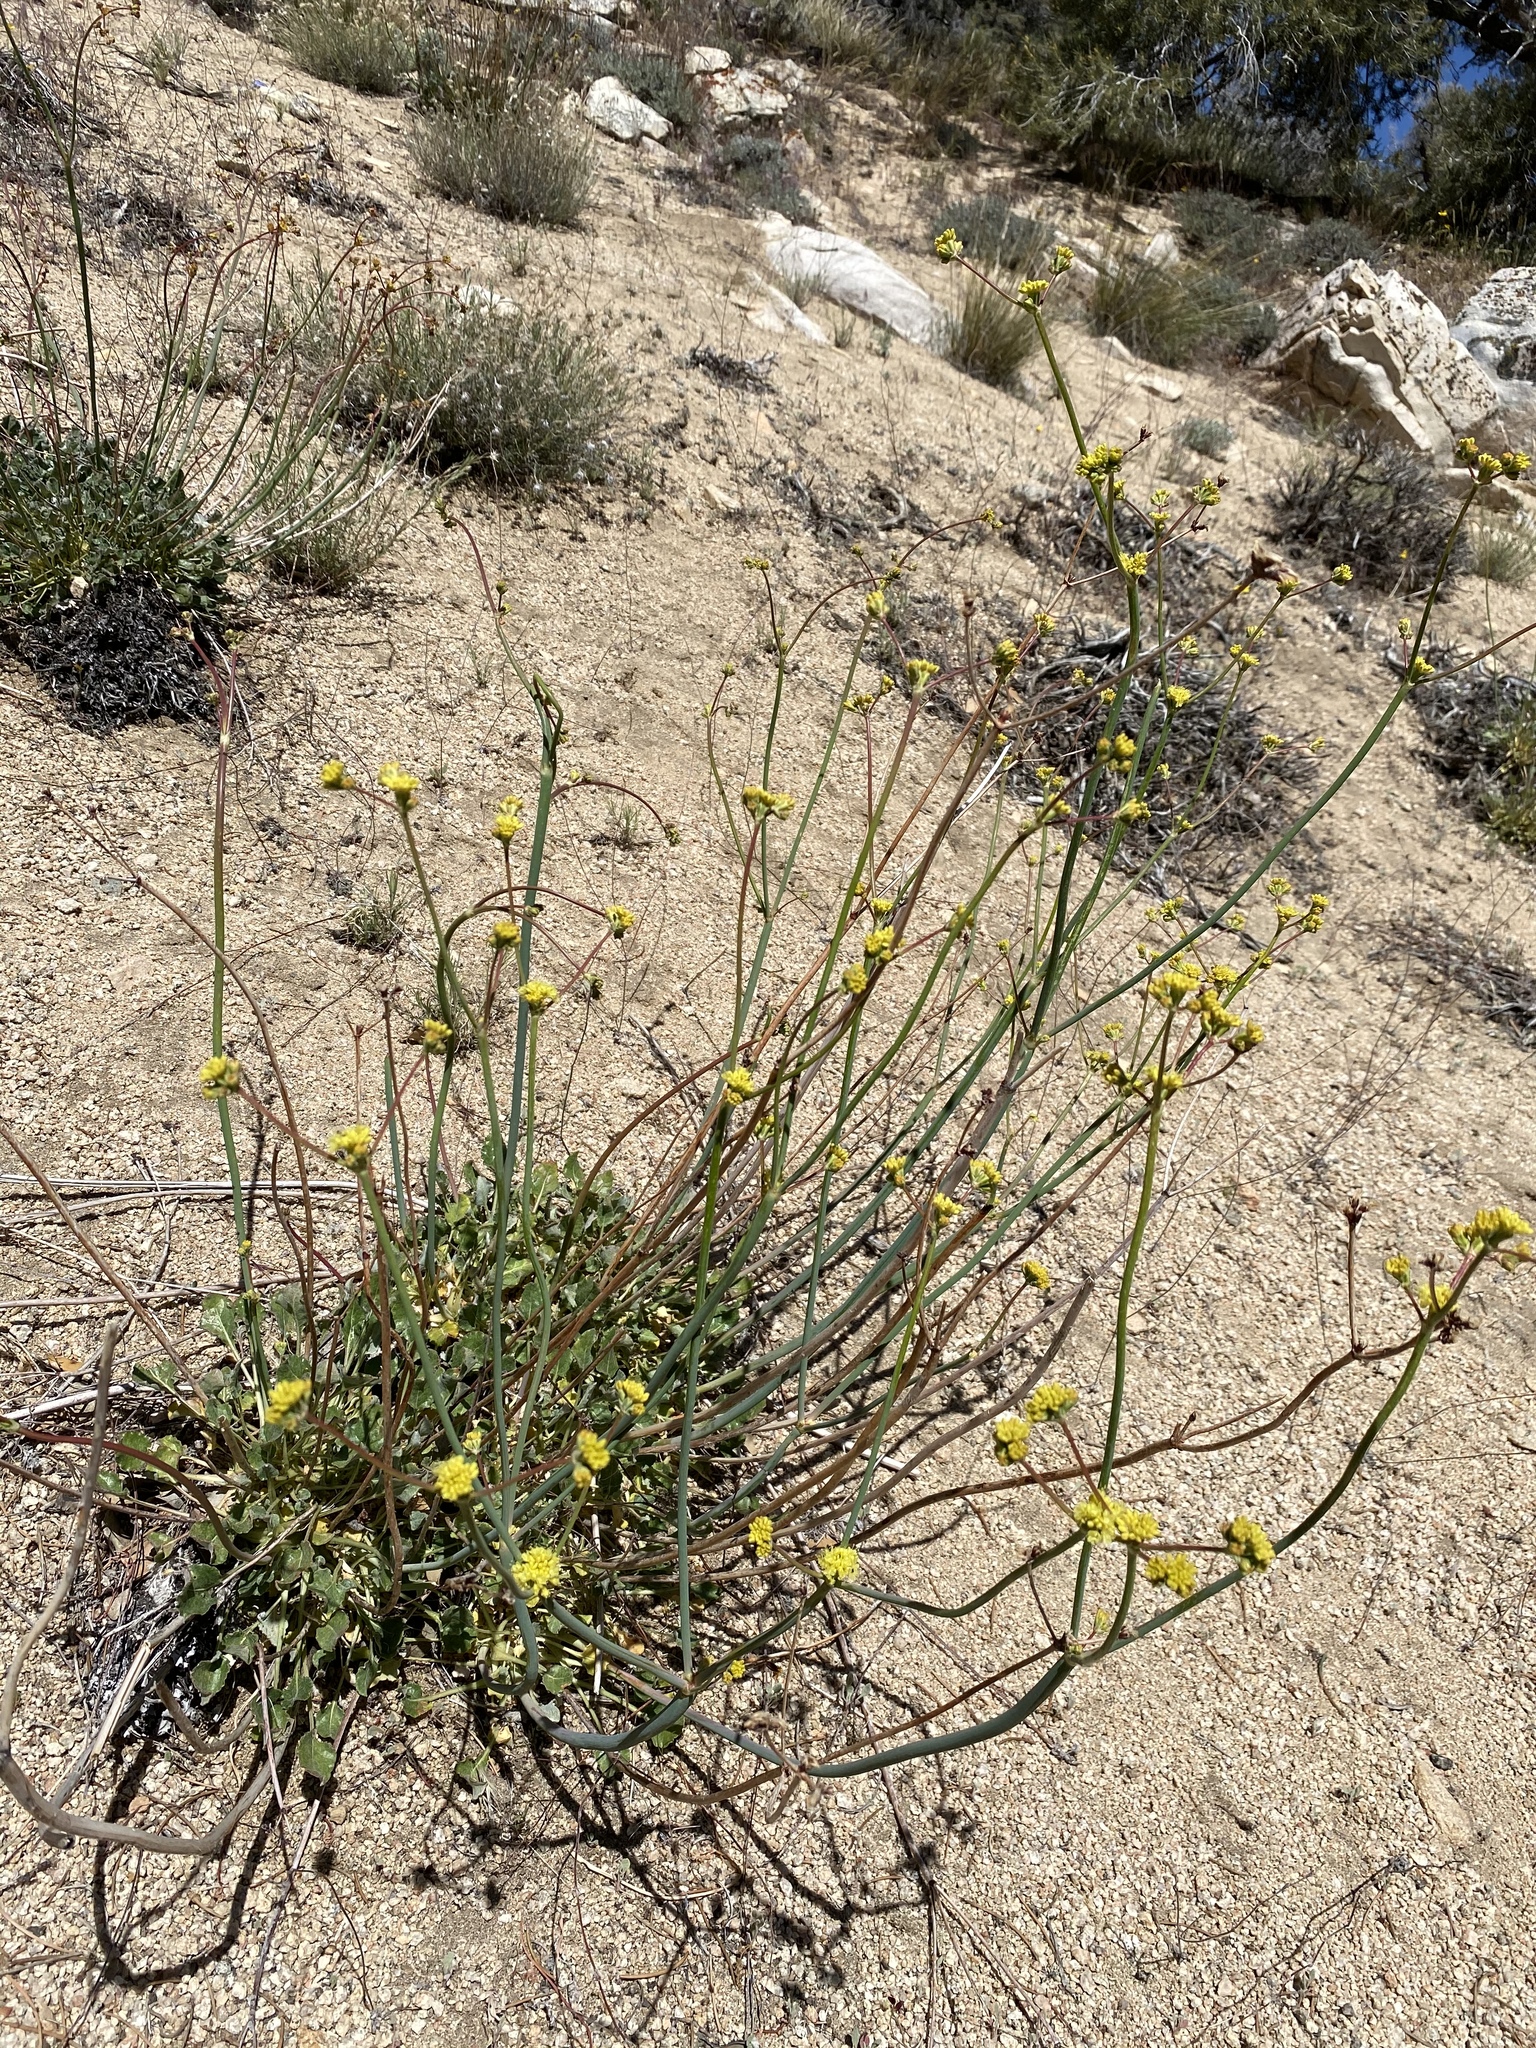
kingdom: Plantae
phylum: Tracheophyta
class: Magnoliopsida
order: Caryophyllales
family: Polygonaceae
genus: Eriogonum
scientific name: Eriogonum nudum
